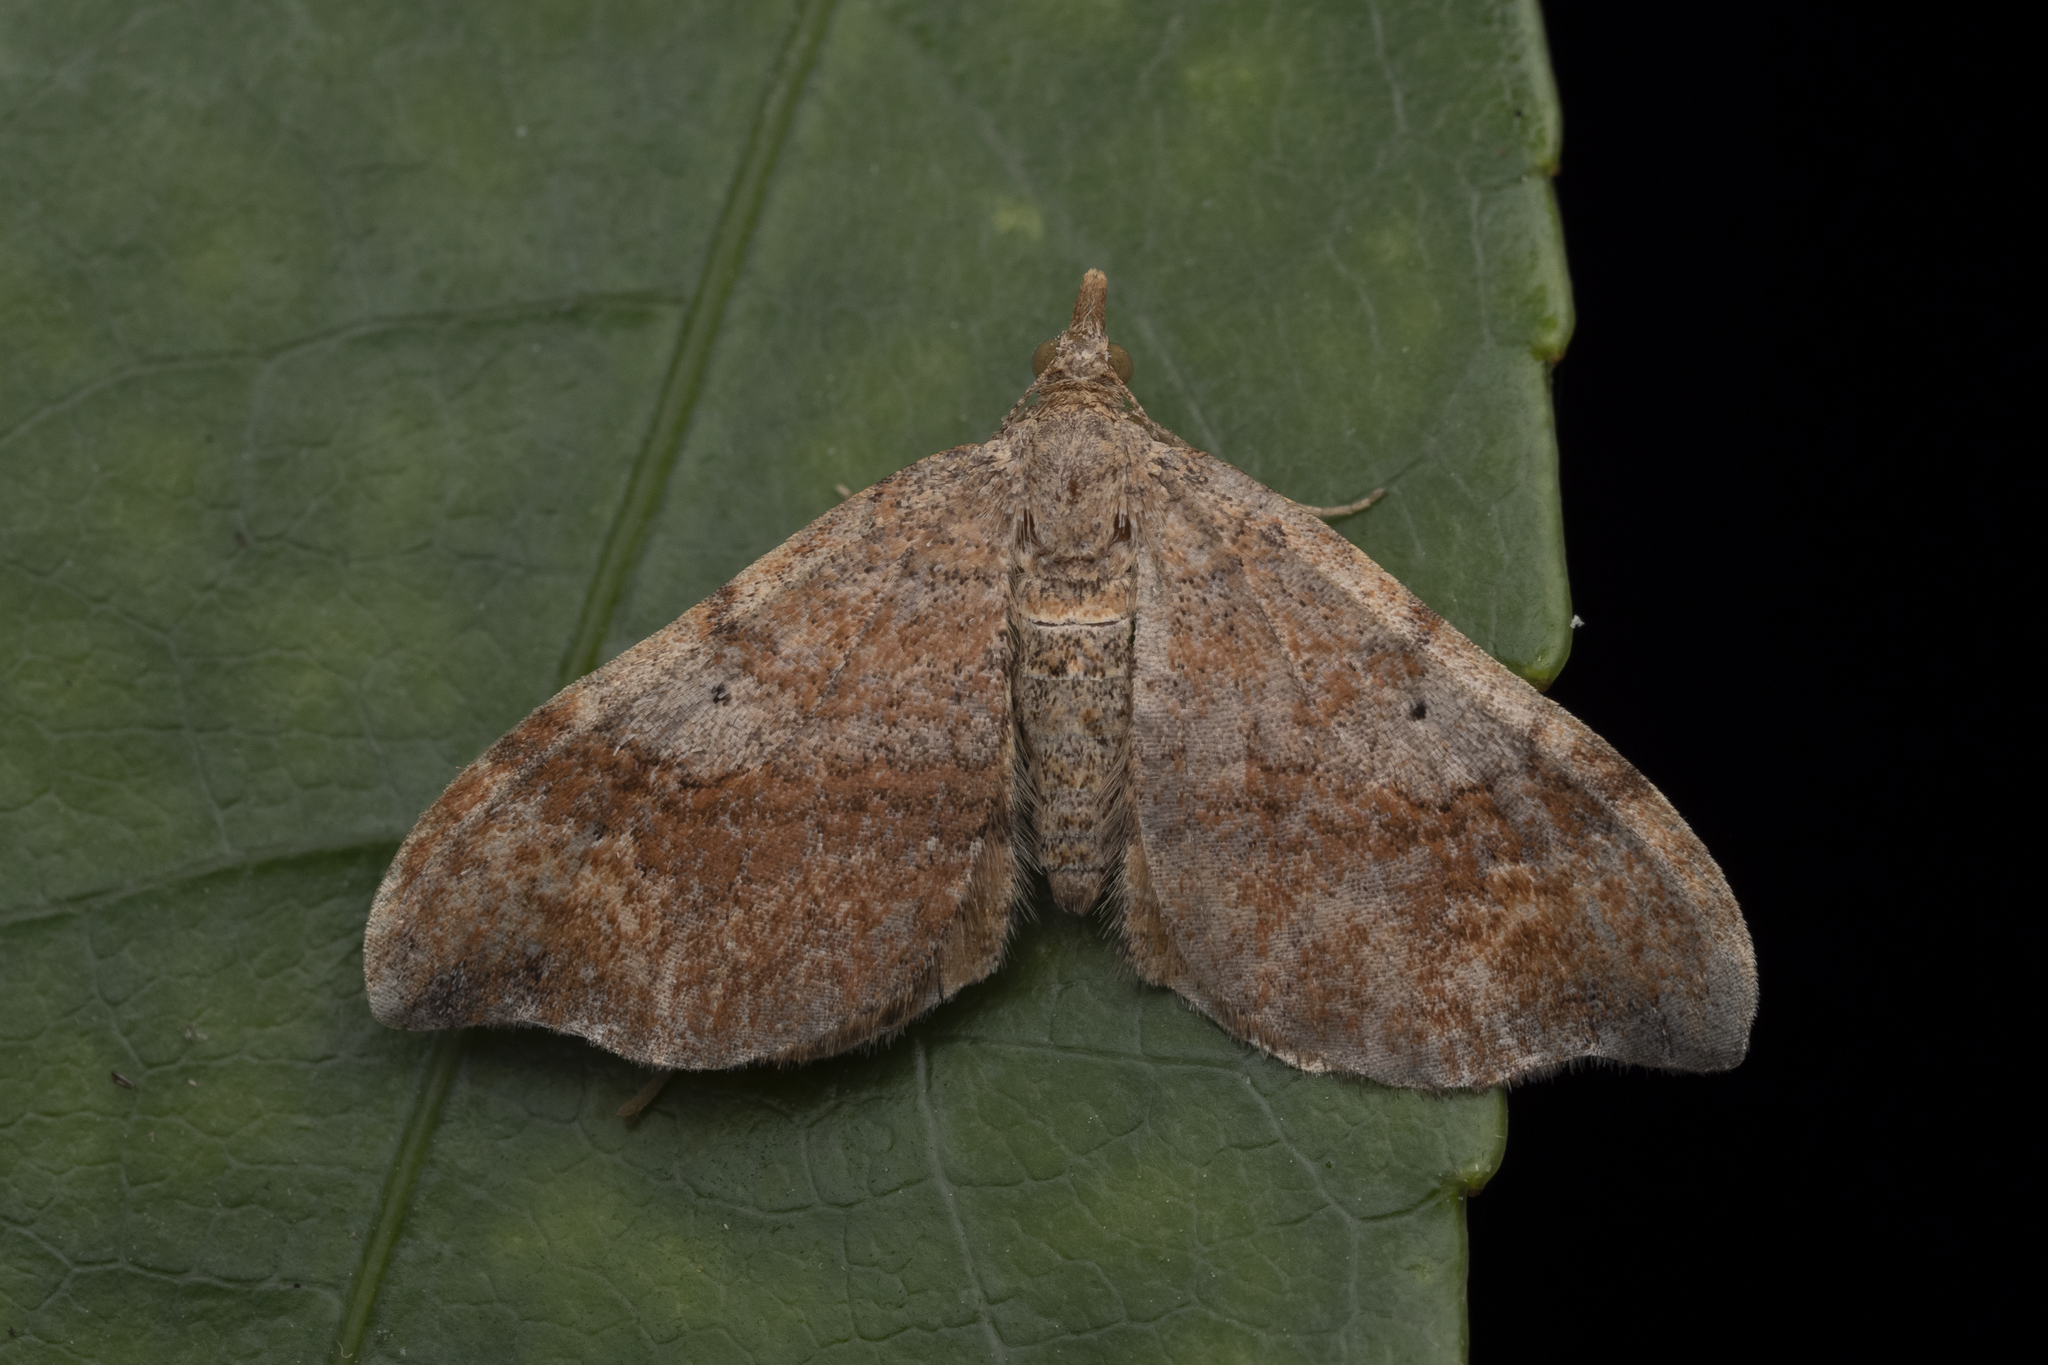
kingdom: Animalia
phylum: Arthropoda
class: Insecta
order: Lepidoptera
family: Geometridae
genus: Homodotis
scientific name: Homodotis megaspilata
